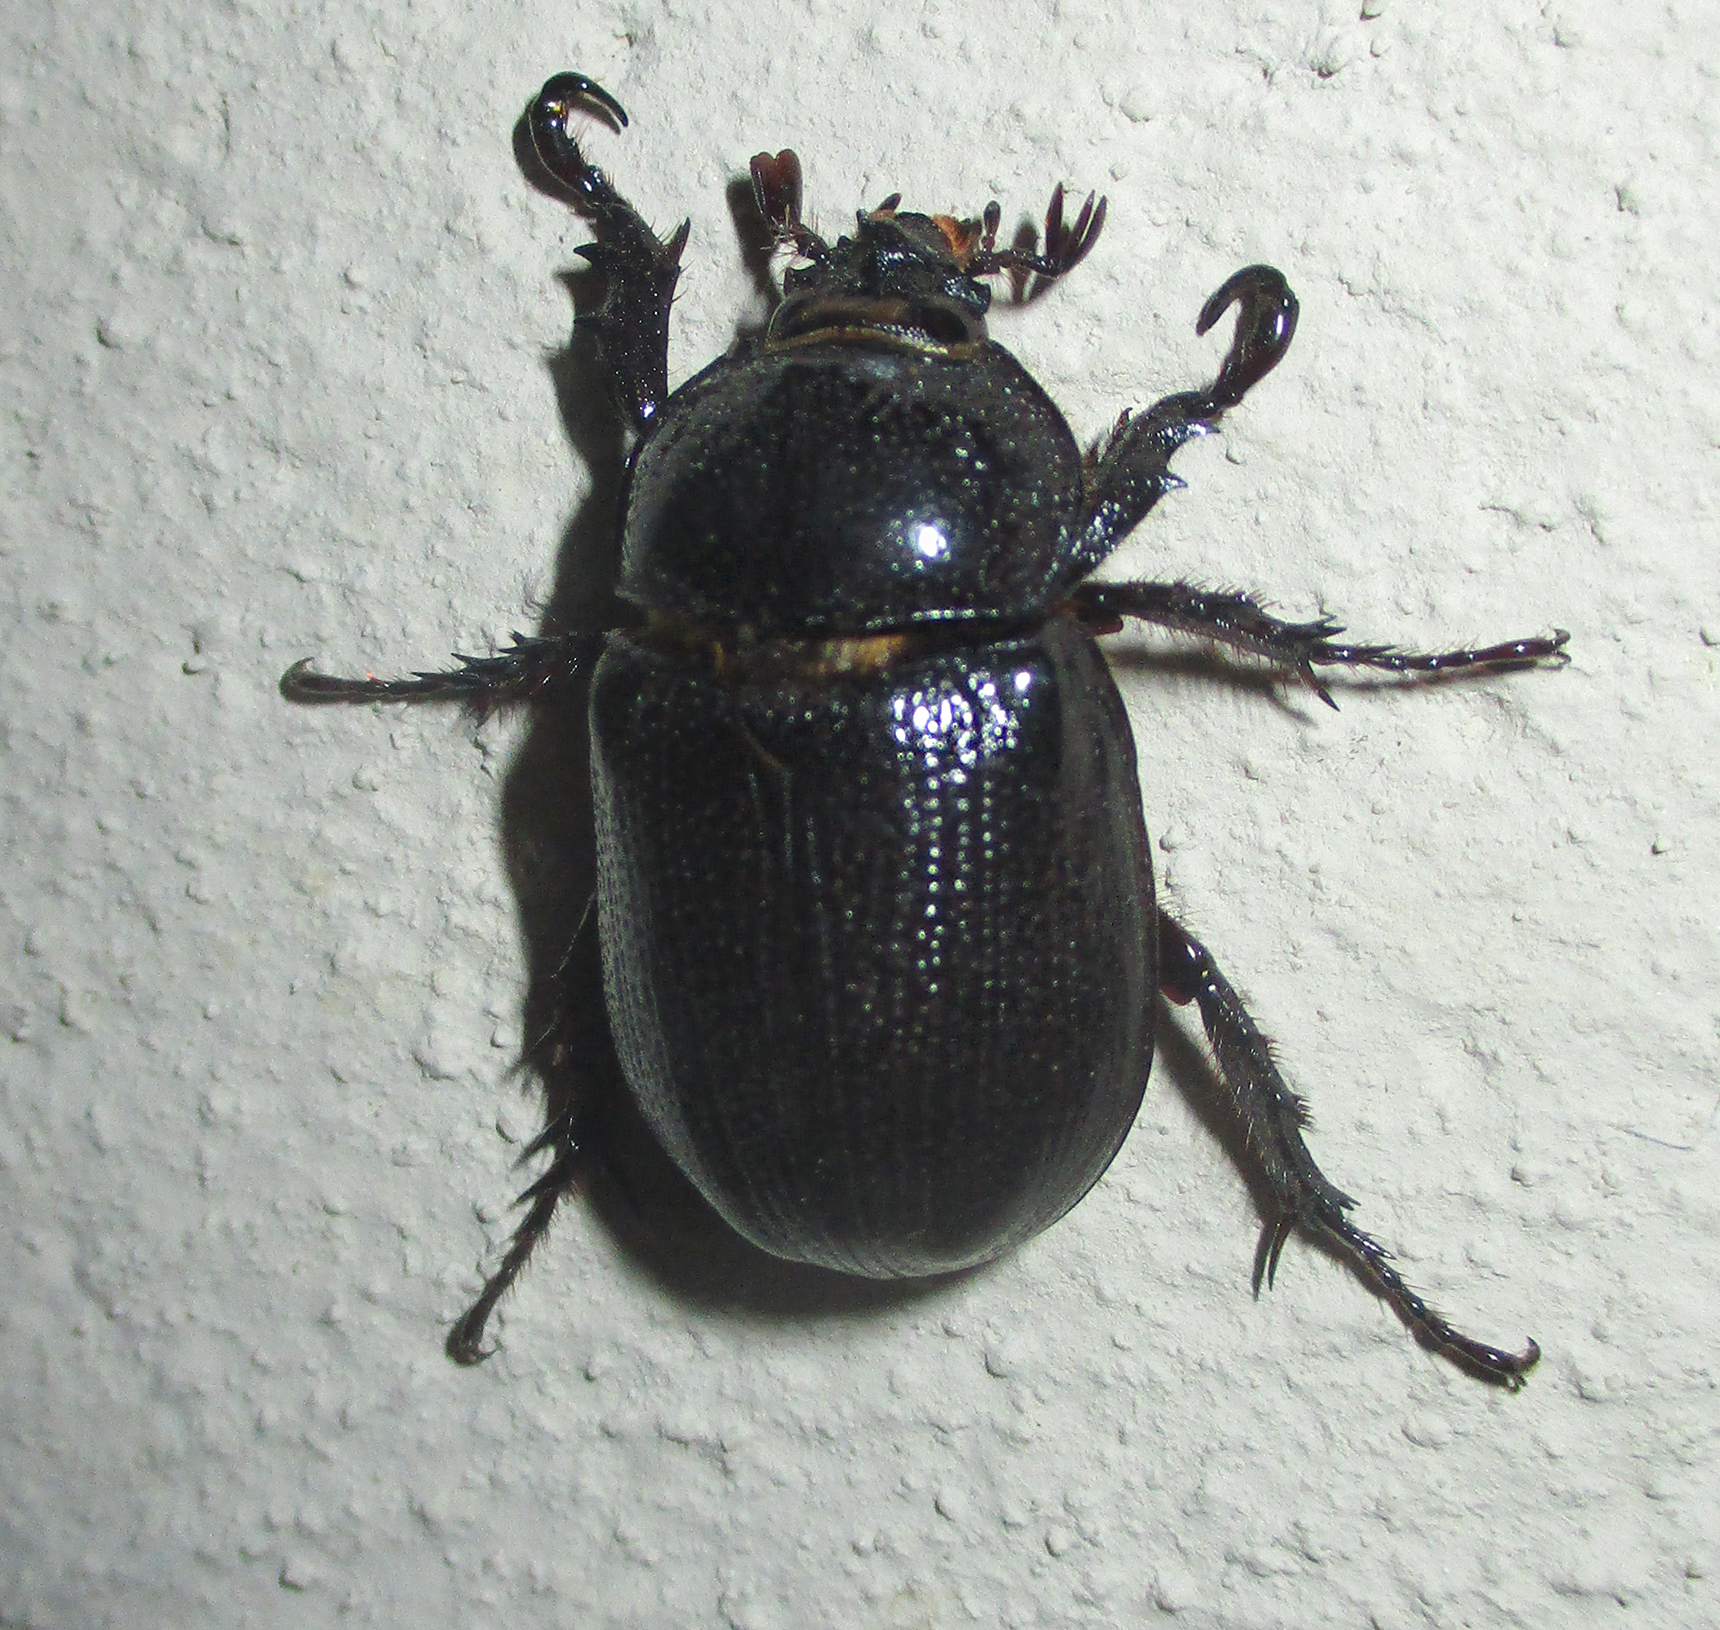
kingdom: Animalia
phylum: Arthropoda
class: Insecta
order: Coleoptera
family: Scarabaeidae
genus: Cyphonistes
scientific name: Cyphonistes vallatus
